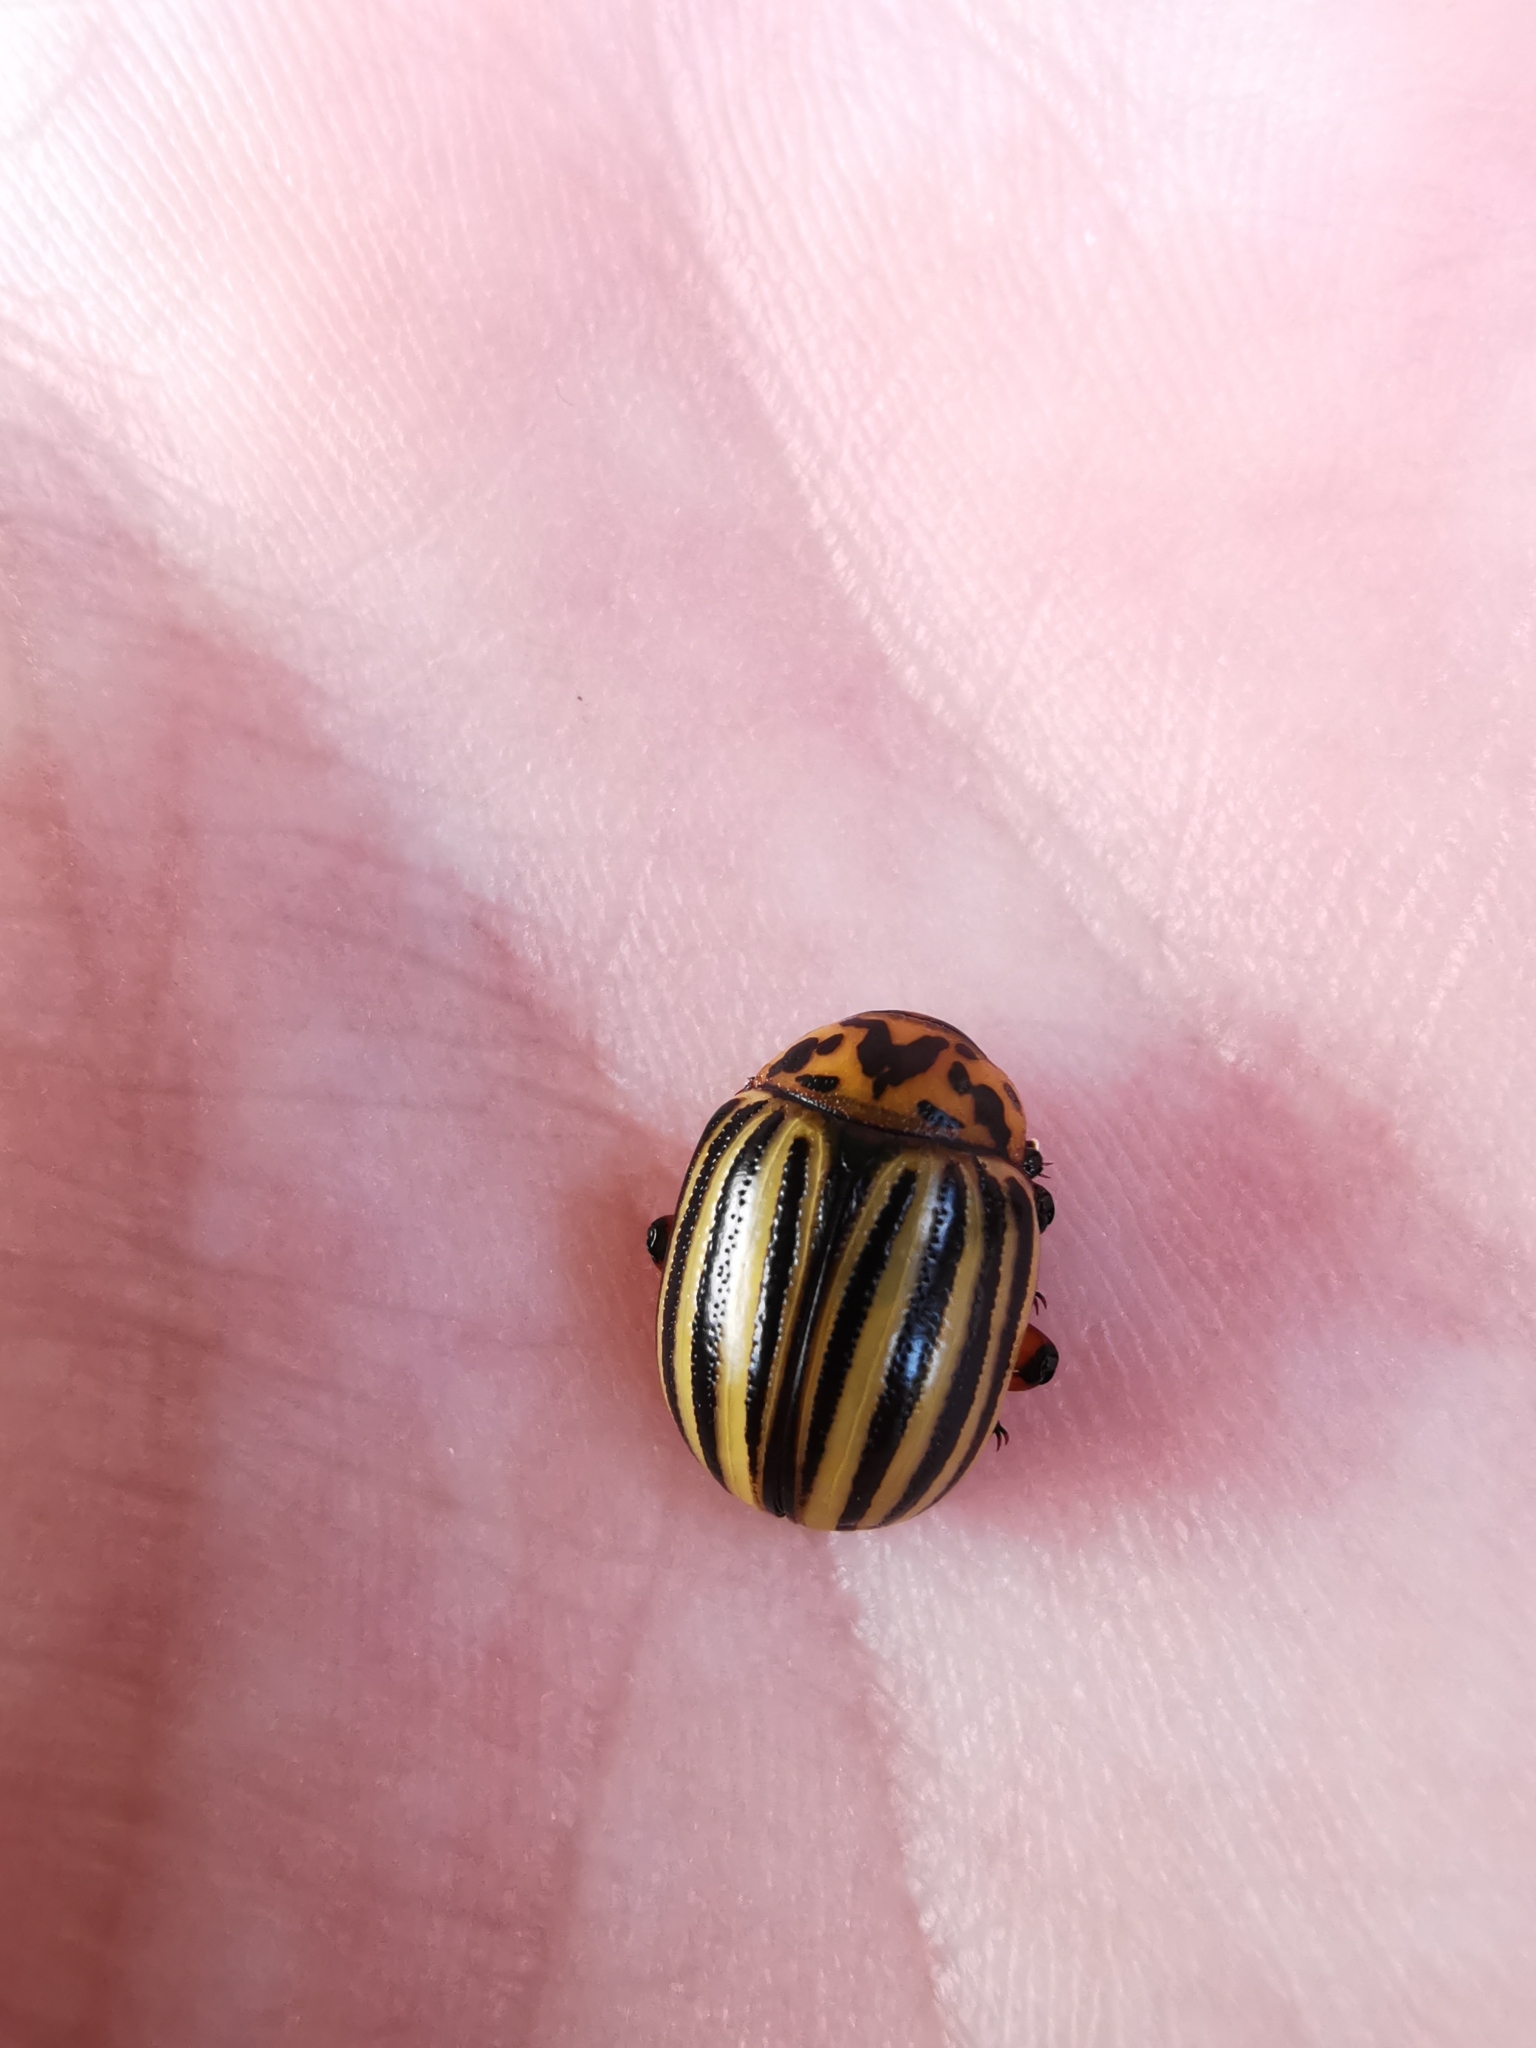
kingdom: Animalia
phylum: Arthropoda
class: Insecta
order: Coleoptera
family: Chrysomelidae
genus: Leptinotarsa
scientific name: Leptinotarsa decemlineata
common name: Colorado potato beetle
